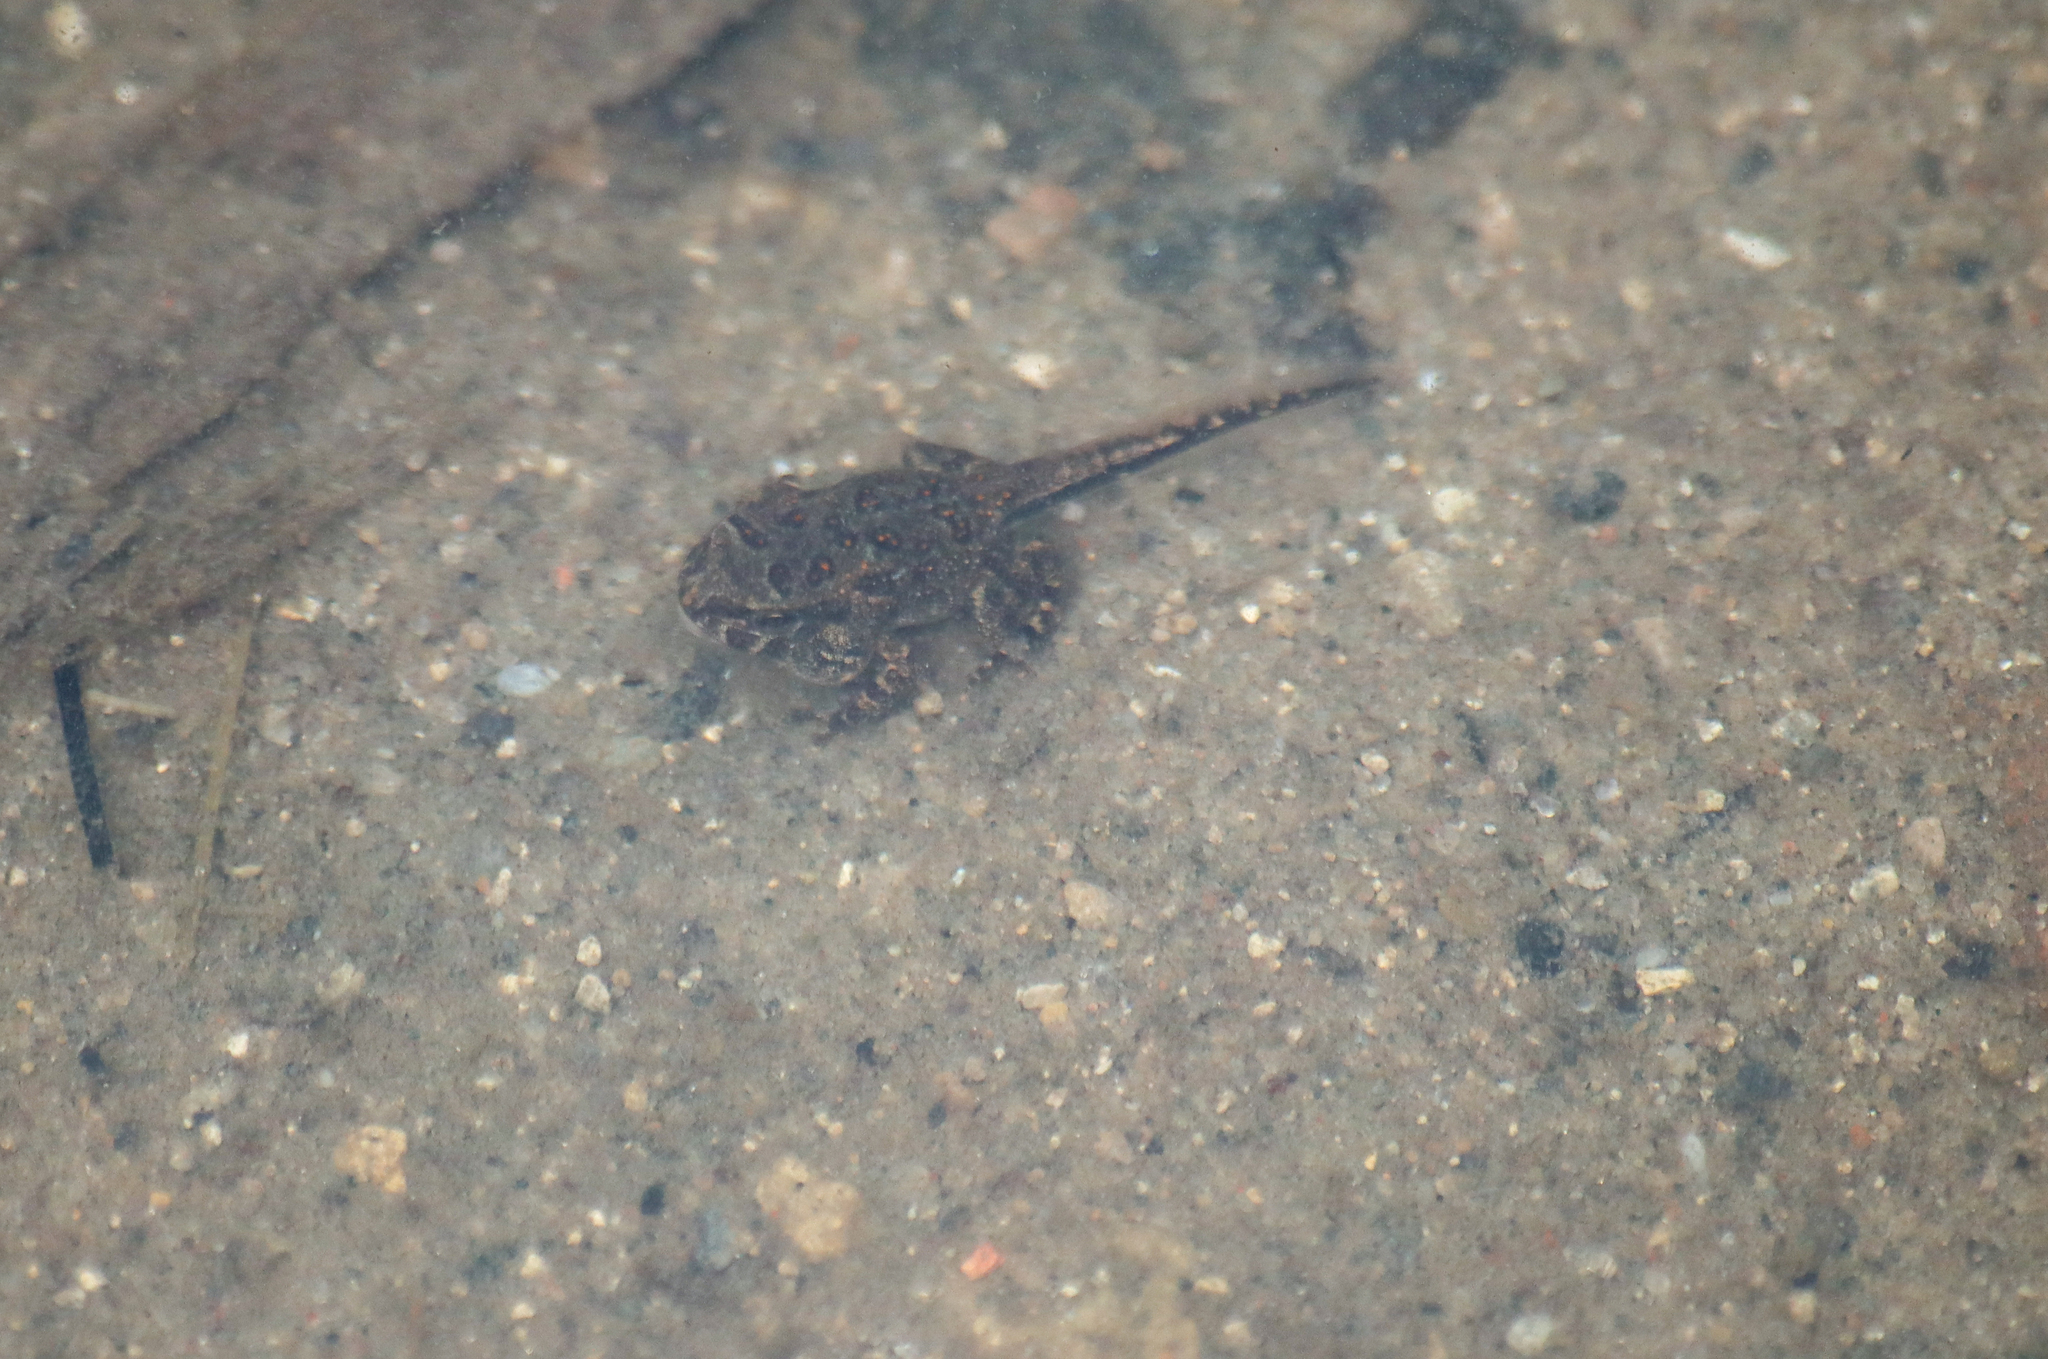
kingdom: Animalia
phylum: Chordata
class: Amphibia
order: Anura
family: Bufonidae
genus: Anaxyrus
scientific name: Anaxyrus americanus
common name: American toad
